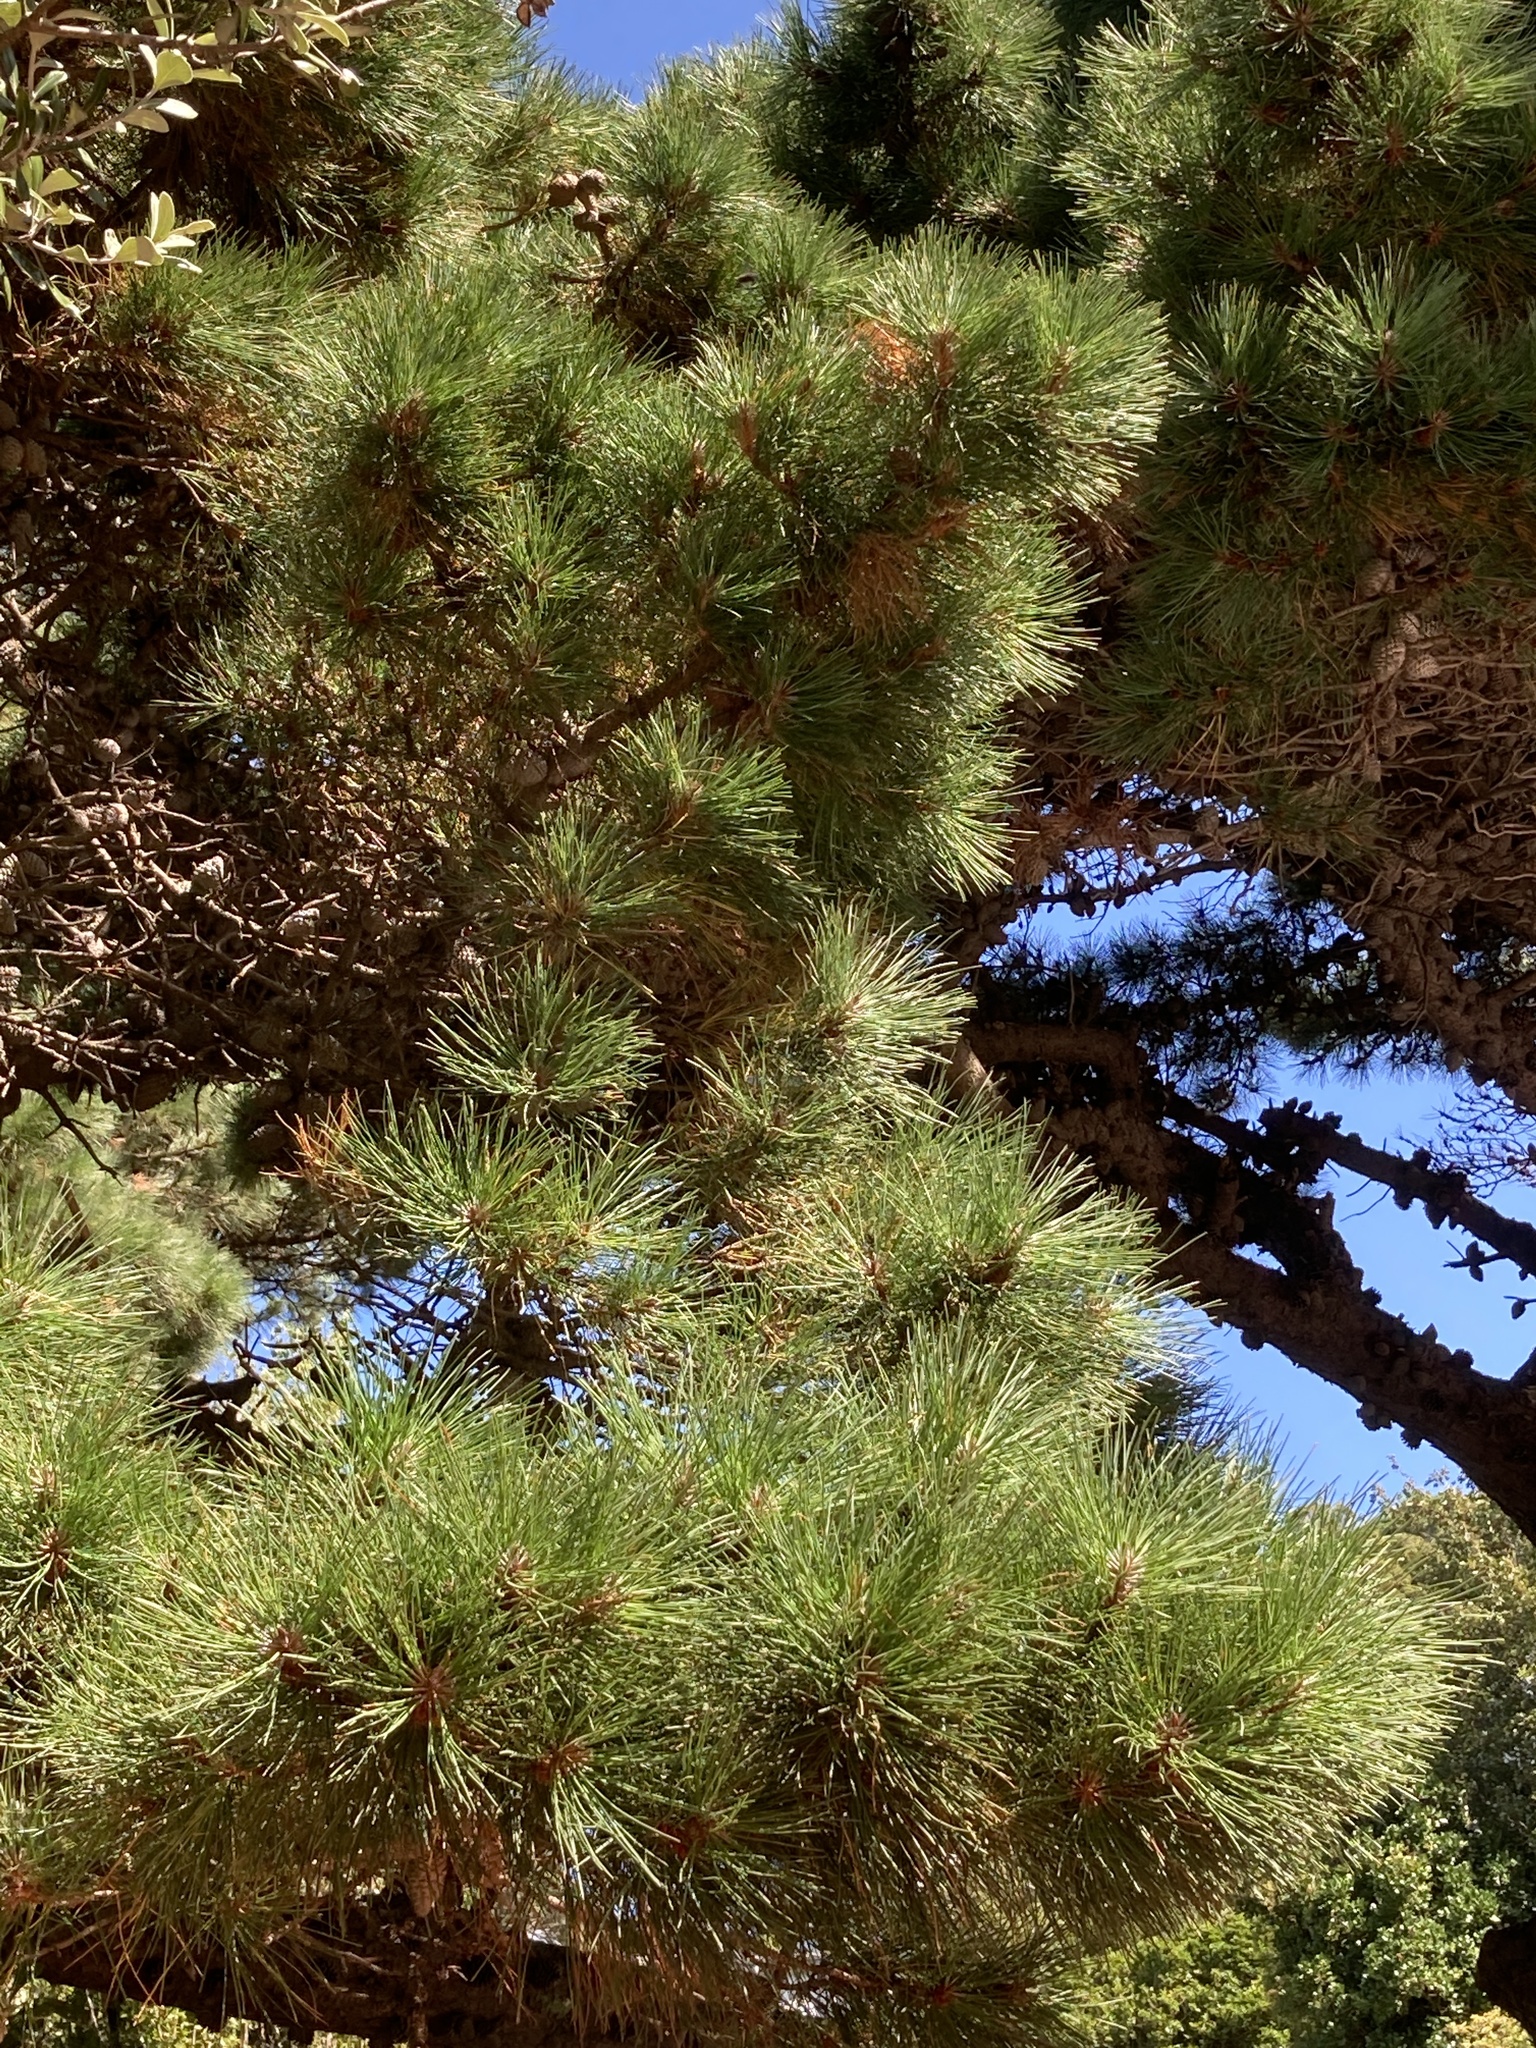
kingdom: Plantae
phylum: Tracheophyta
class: Pinopsida
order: Pinales
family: Pinaceae
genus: Pinus
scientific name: Pinus radiata
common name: Monterey pine
